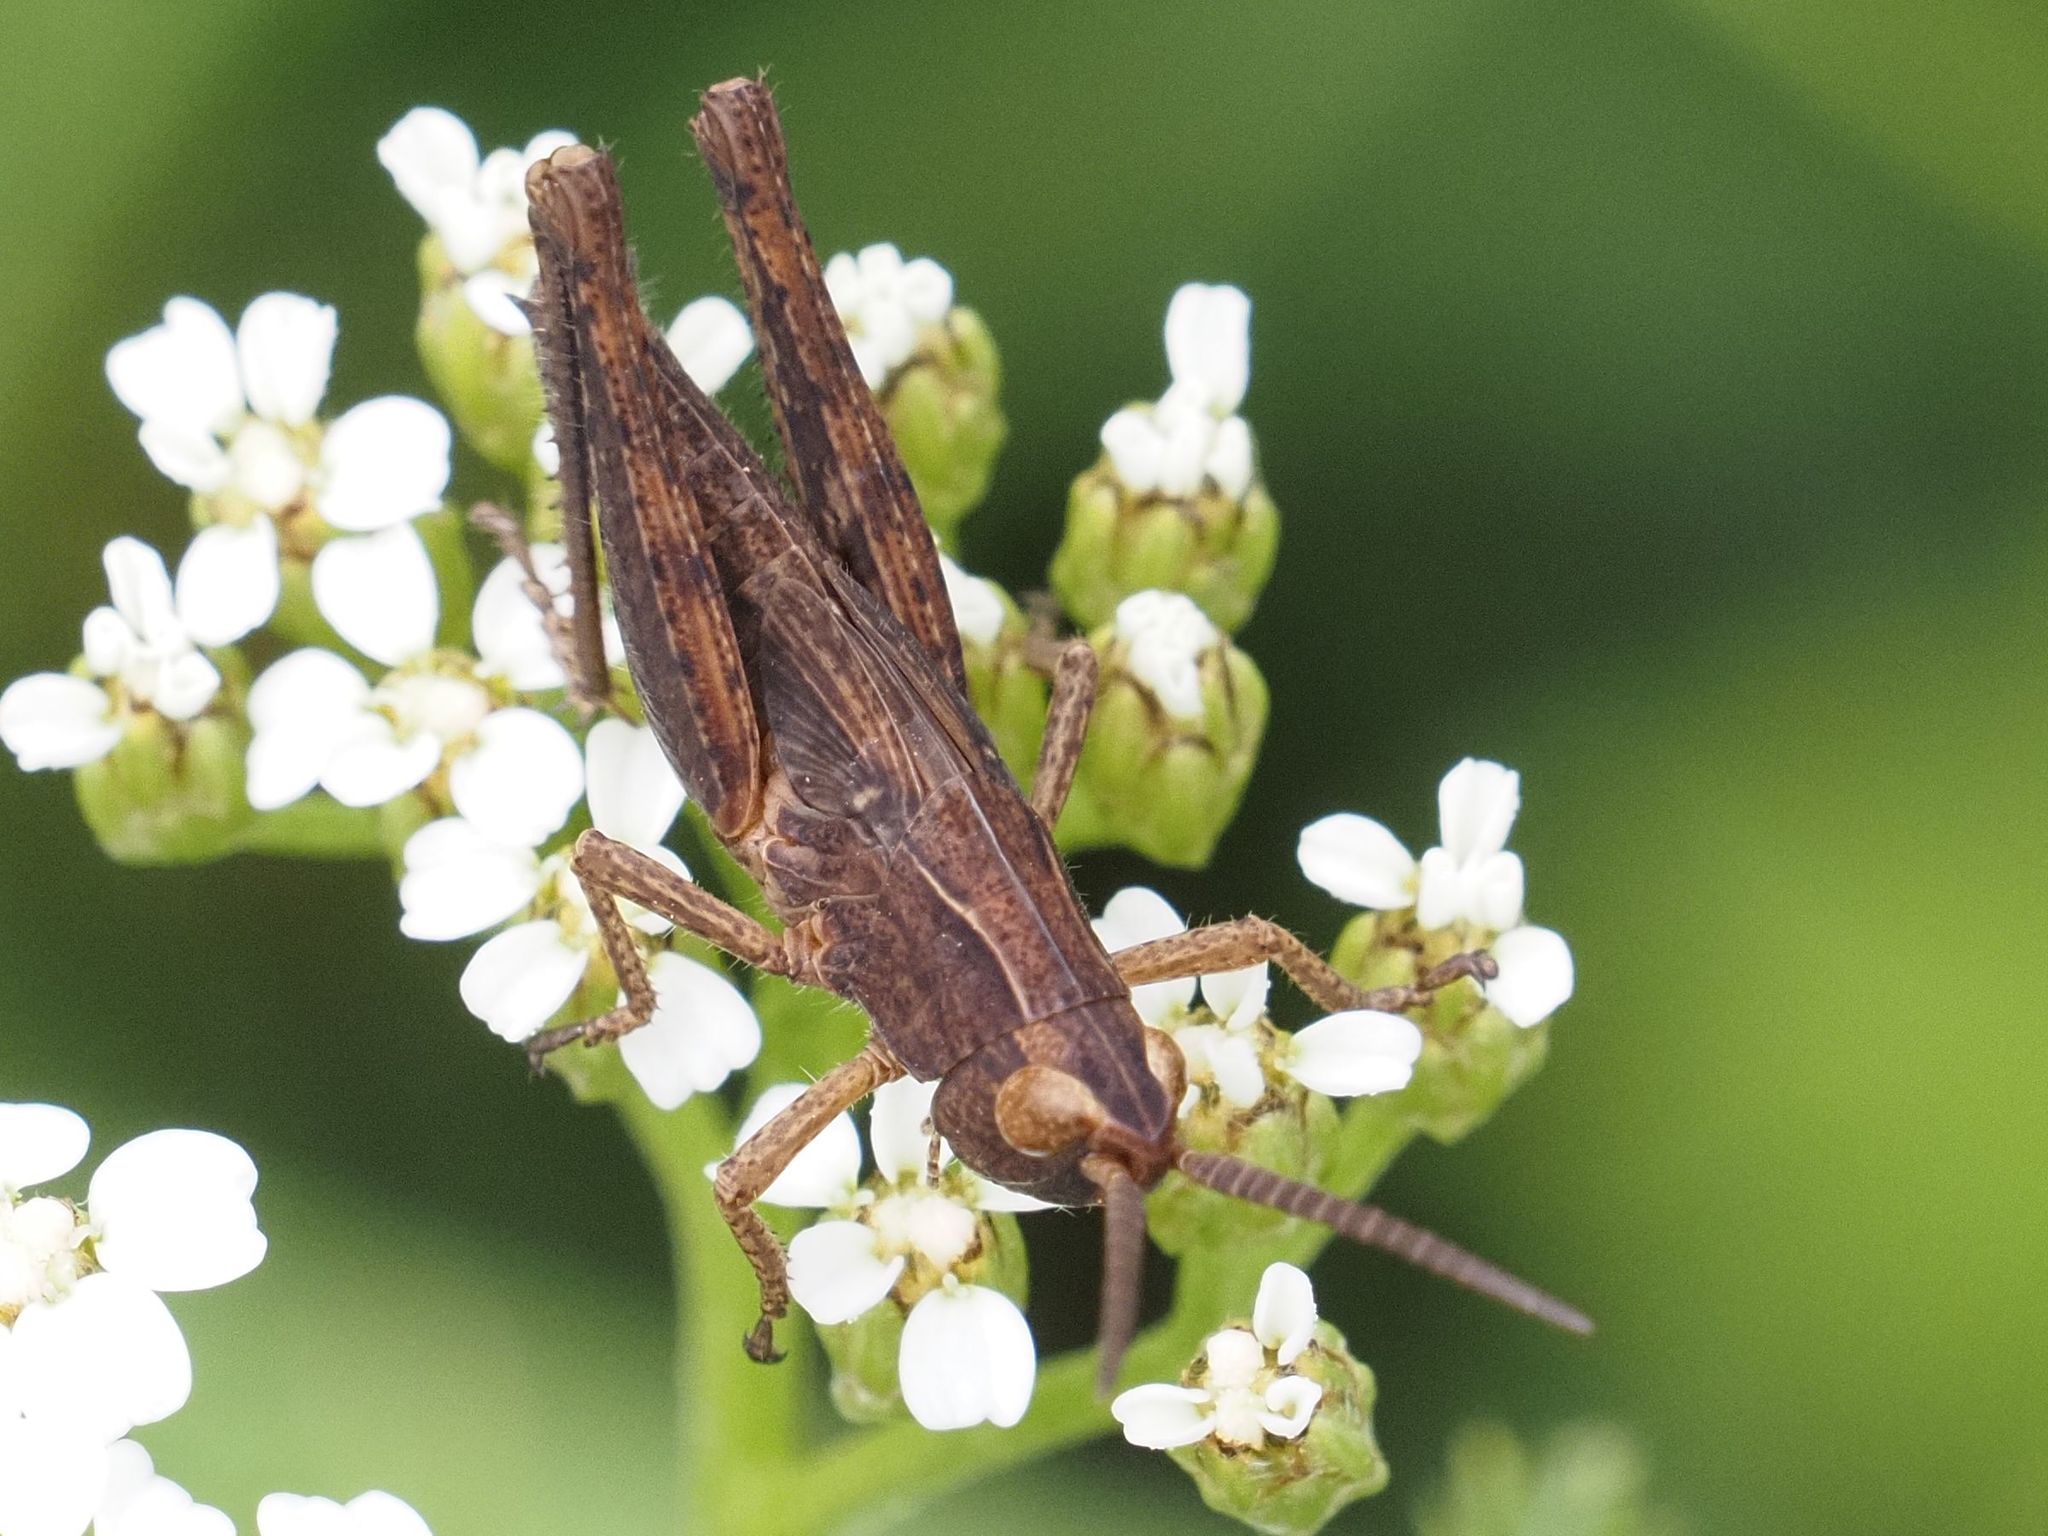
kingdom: Animalia
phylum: Arthropoda
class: Insecta
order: Orthoptera
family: Acrididae
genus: Chorthippus
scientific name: Chorthippus dorsatus
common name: Steppe grasshopper
